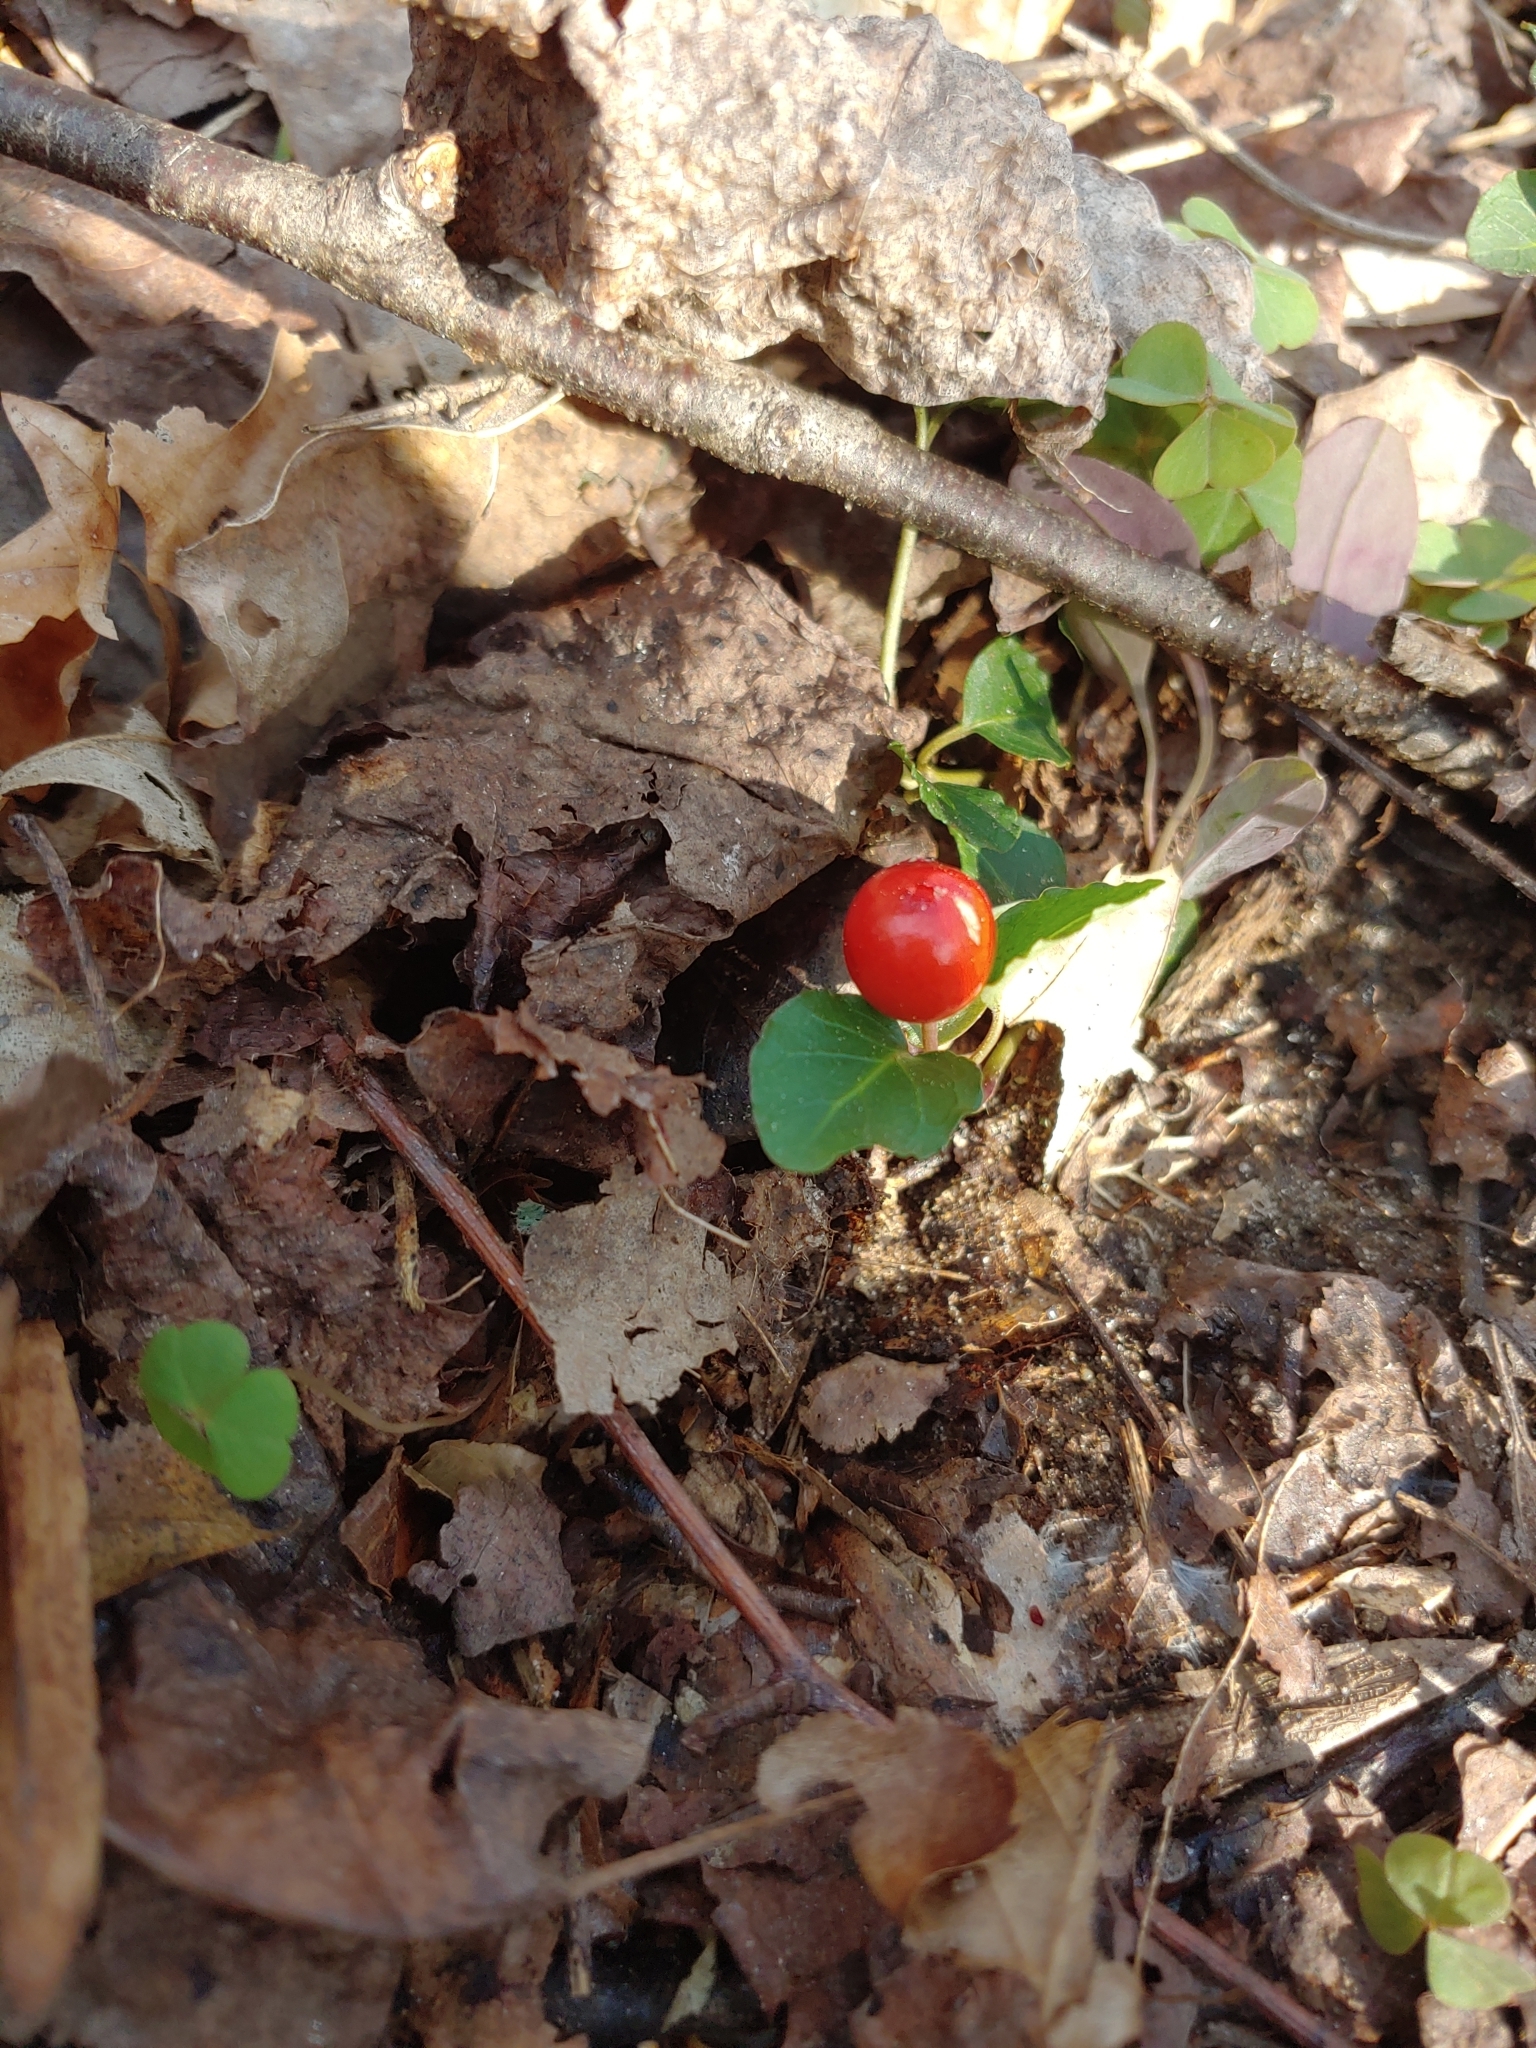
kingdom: Plantae
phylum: Tracheophyta
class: Magnoliopsida
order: Gentianales
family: Rubiaceae
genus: Mitchella
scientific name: Mitchella repens
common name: Partridge-berry
